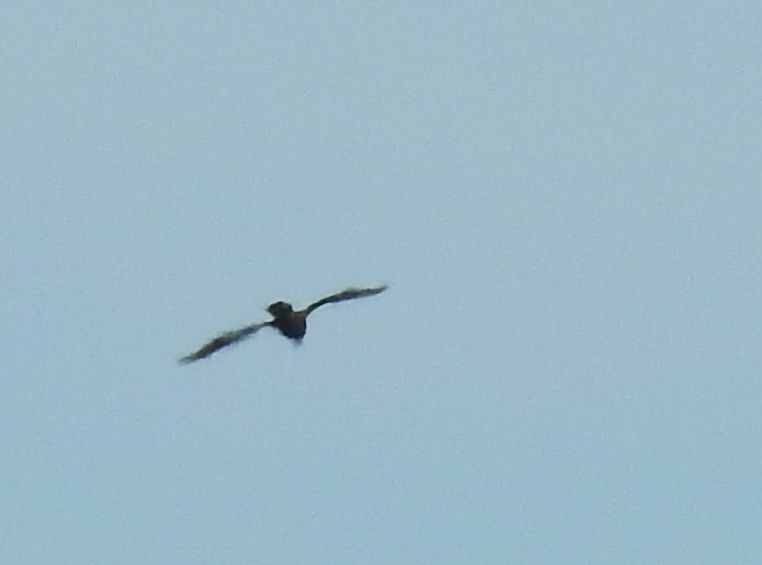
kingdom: Animalia
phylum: Chordata
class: Aves
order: Accipitriformes
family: Accipitridae
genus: Circus
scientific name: Circus aeruginosus
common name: Western marsh harrier
